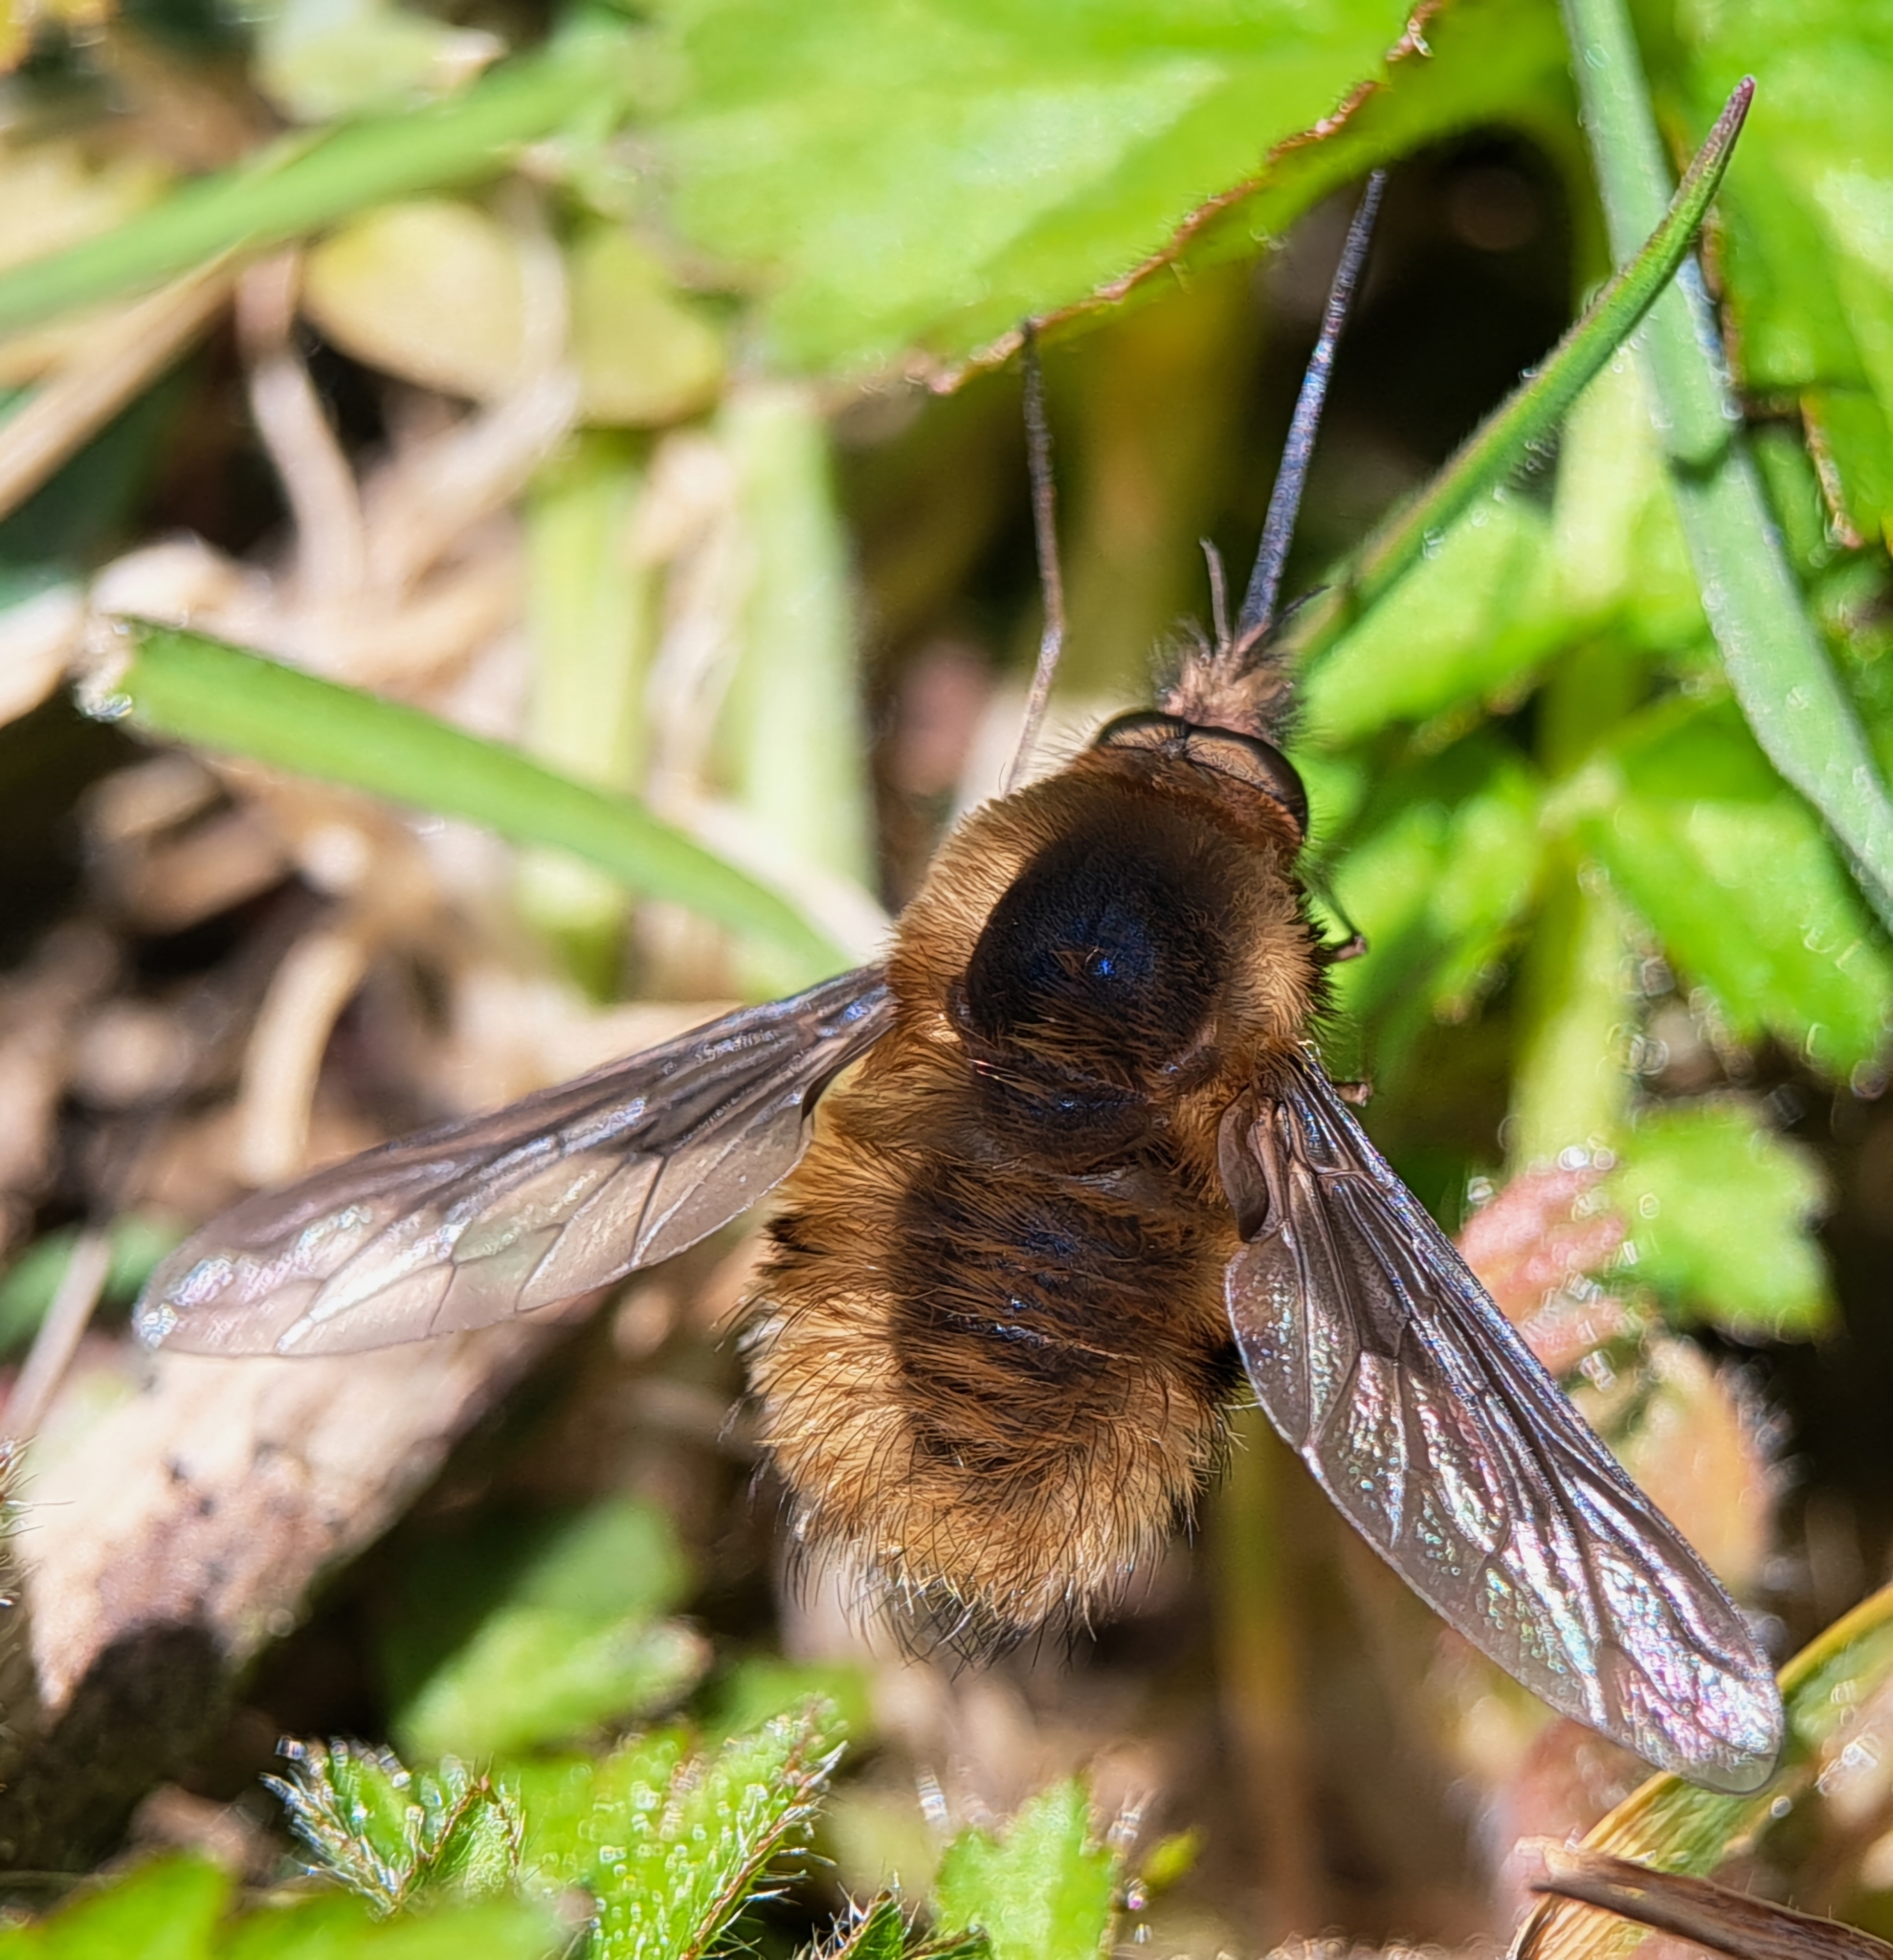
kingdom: Animalia
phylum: Arthropoda
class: Insecta
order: Diptera
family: Bombyliidae
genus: Bombylius
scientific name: Bombylius major
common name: Bee fly
